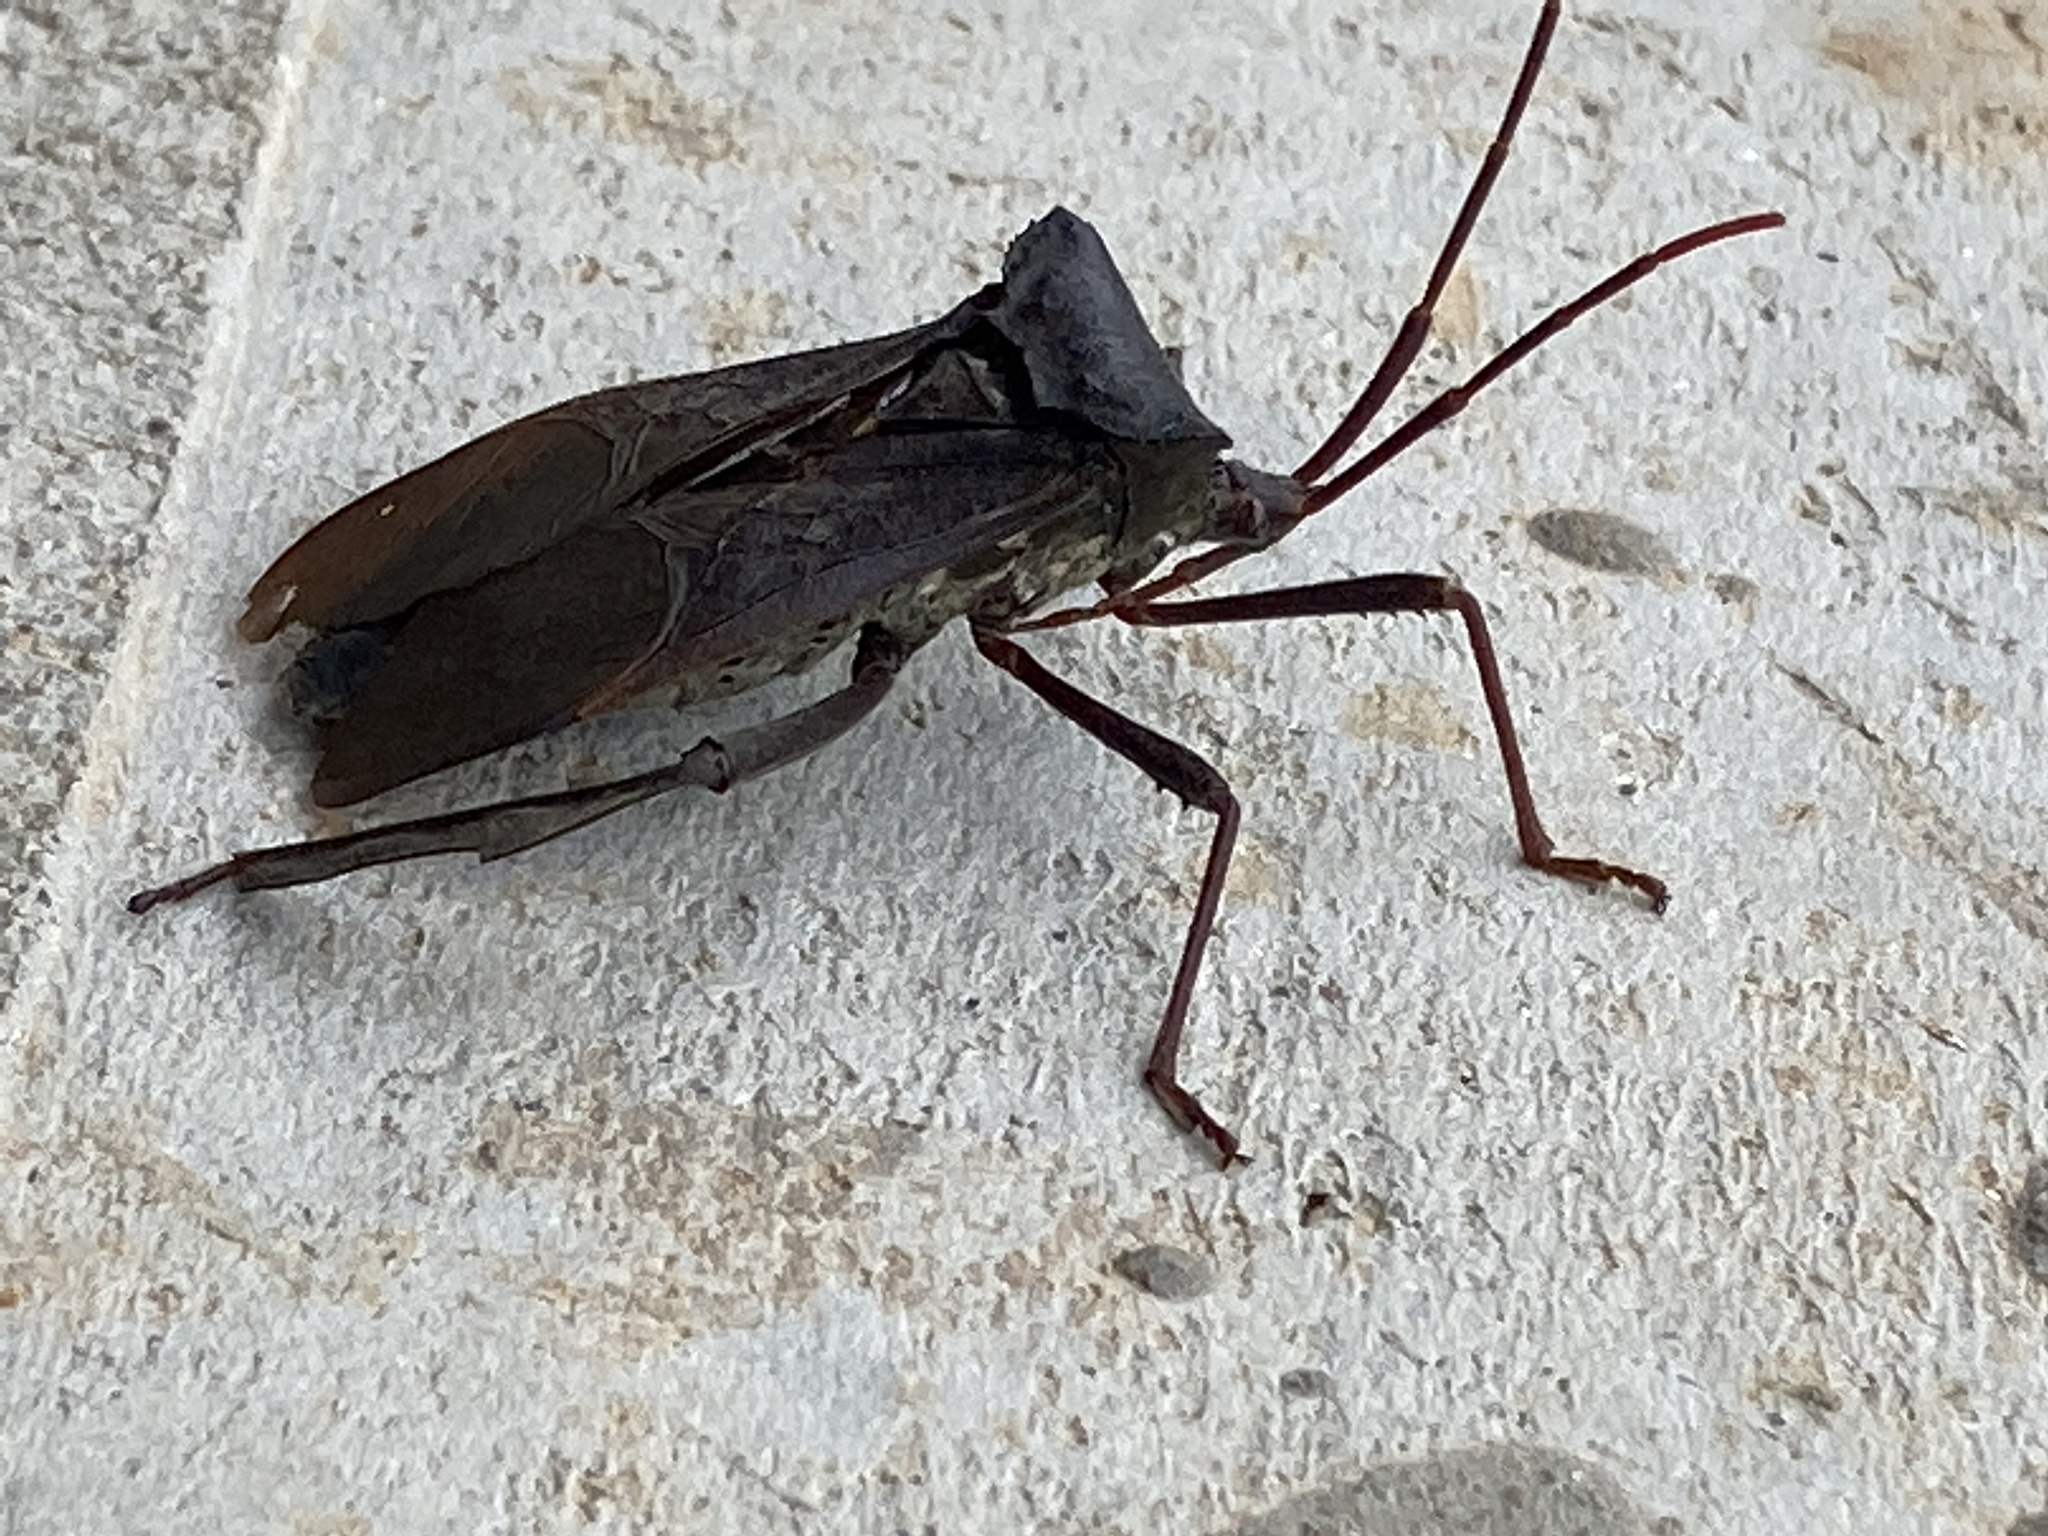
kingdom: Animalia
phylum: Arthropoda
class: Insecta
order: Hemiptera
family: Coreidae
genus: Acanthocephala
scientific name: Acanthocephala declivis
